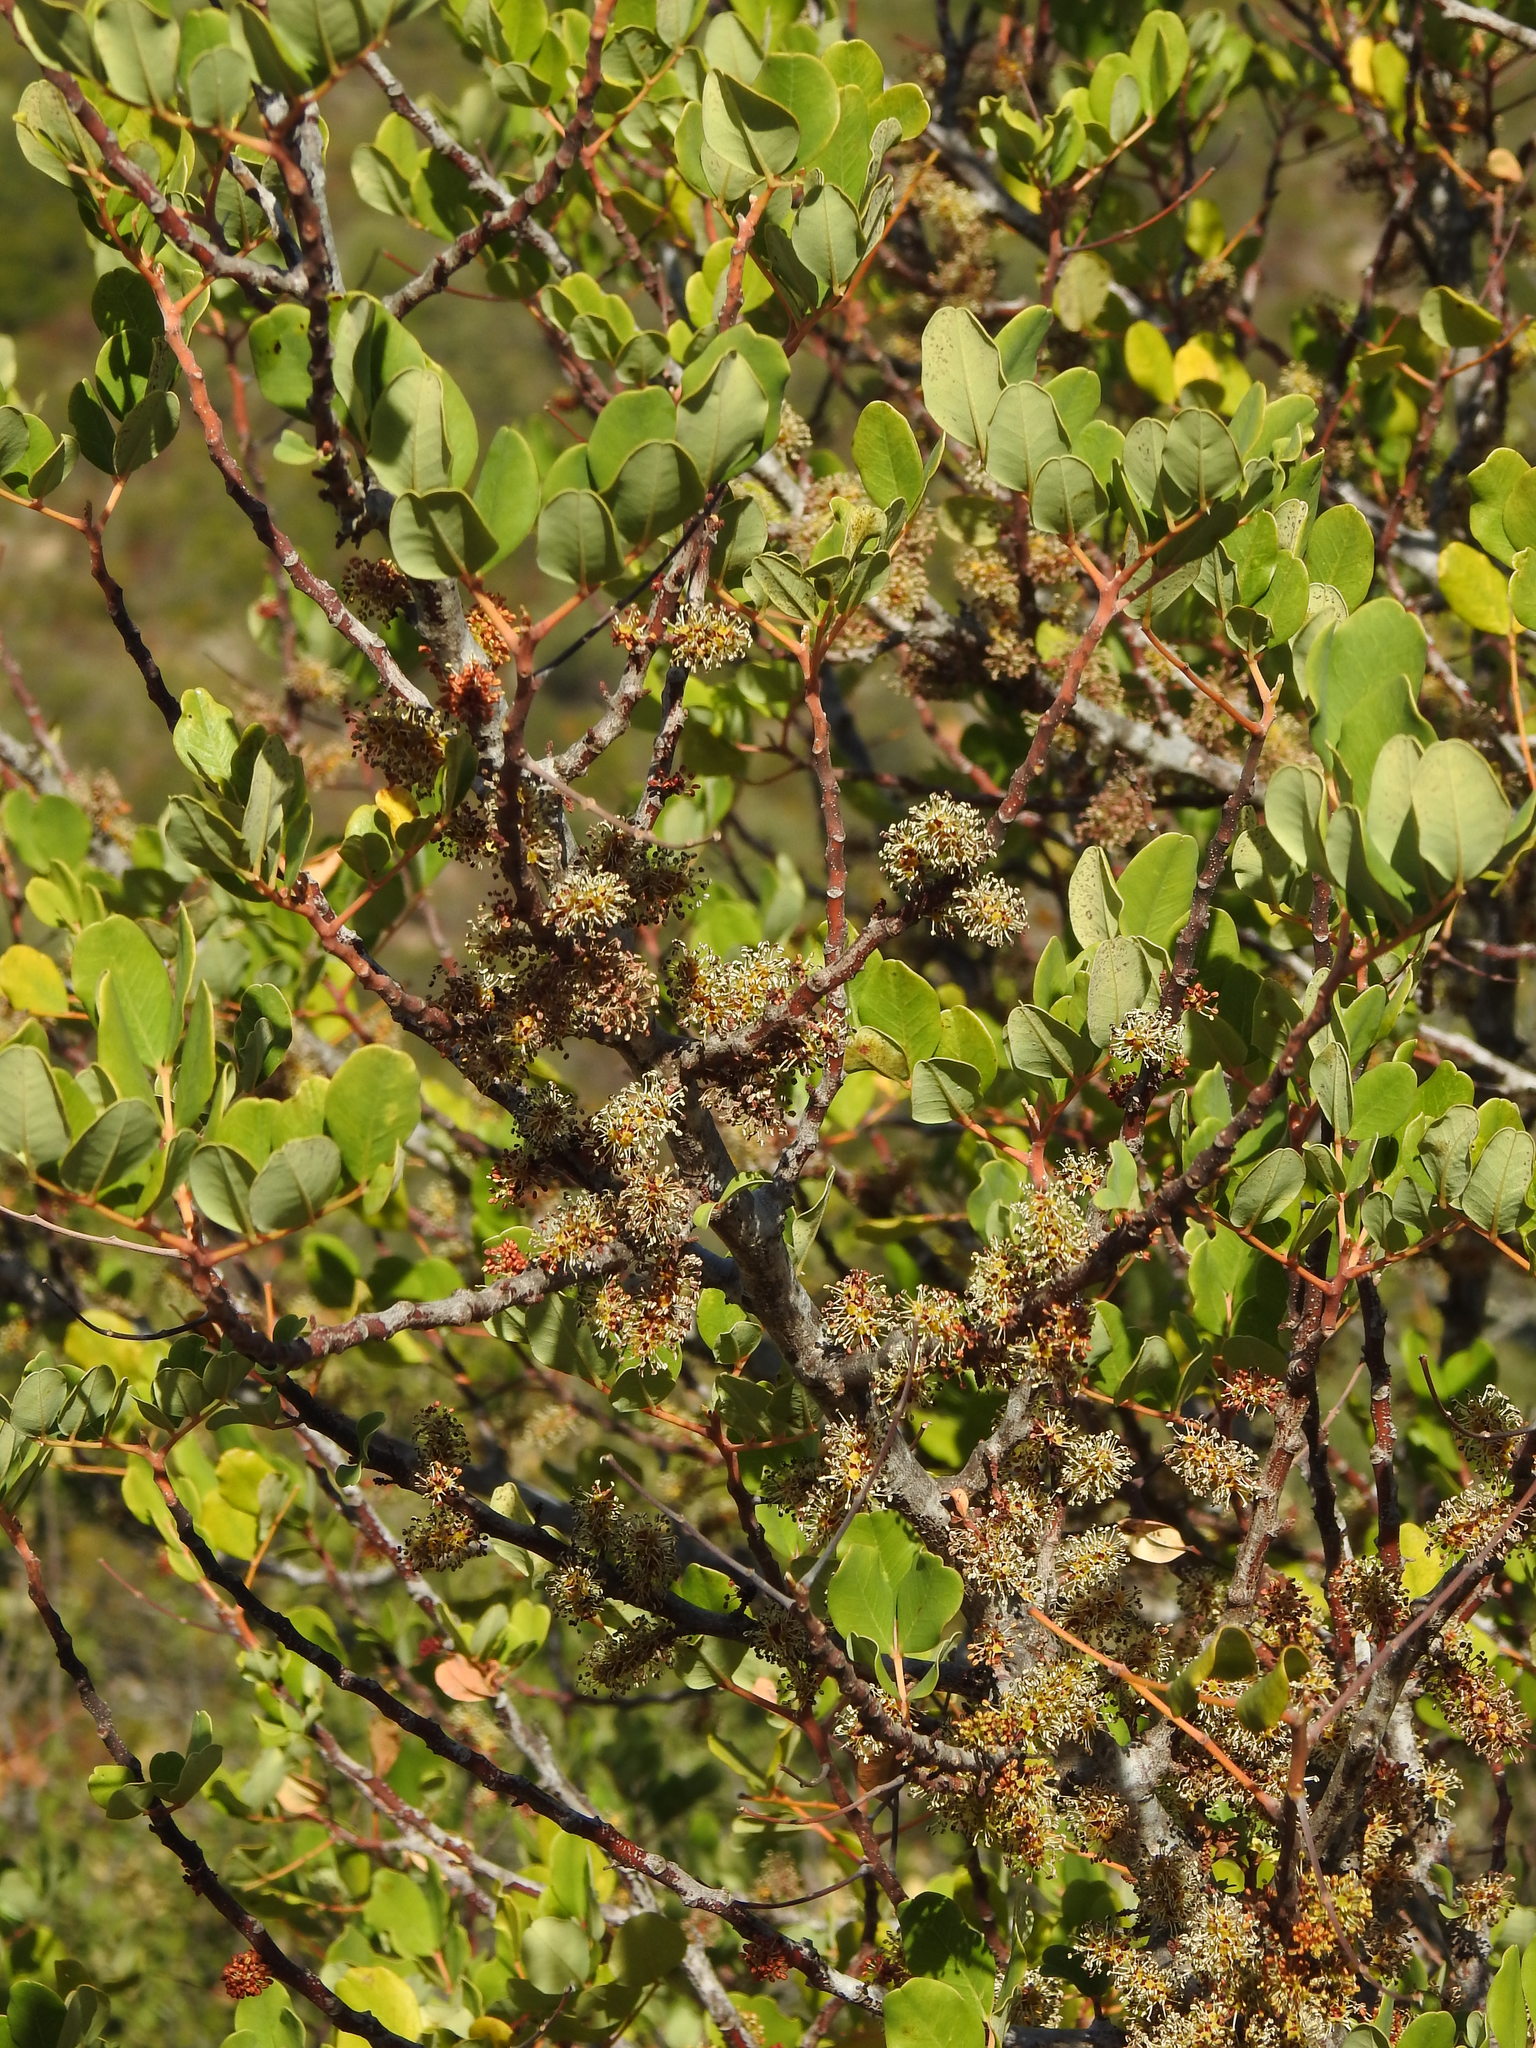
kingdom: Plantae
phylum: Tracheophyta
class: Magnoliopsida
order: Fabales
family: Fabaceae
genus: Ceratonia
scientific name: Ceratonia siliqua
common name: Carob
